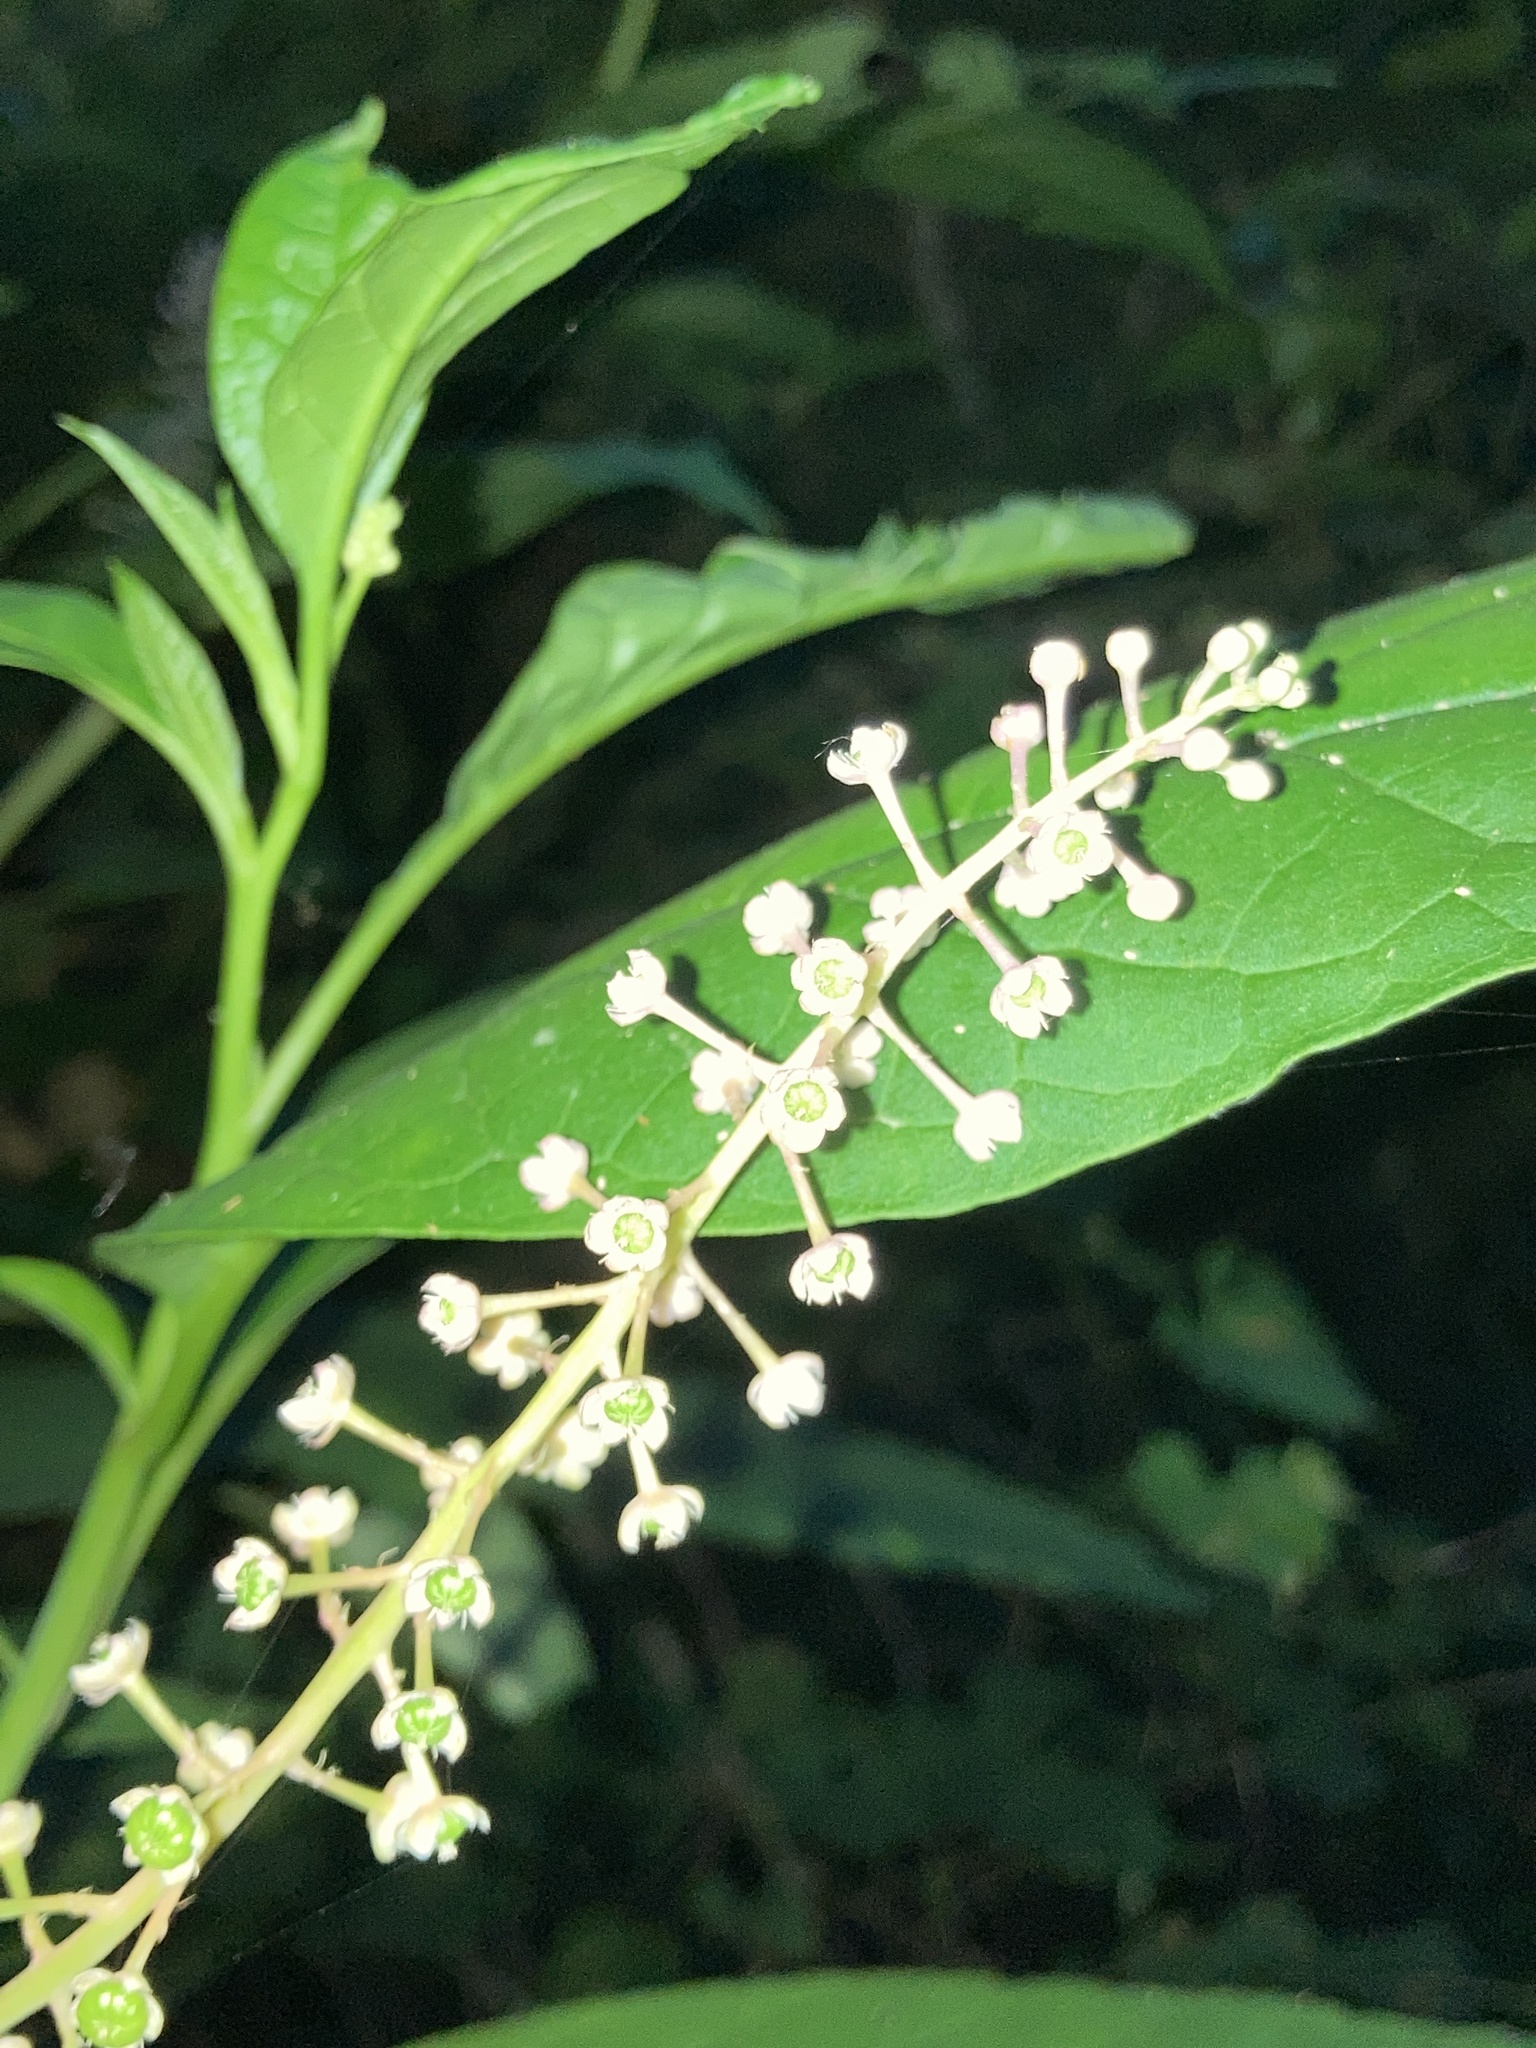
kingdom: Plantae
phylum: Tracheophyta
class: Magnoliopsida
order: Caryophyllales
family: Phytolaccaceae
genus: Phytolacca
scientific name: Phytolacca americana
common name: American pokeweed
